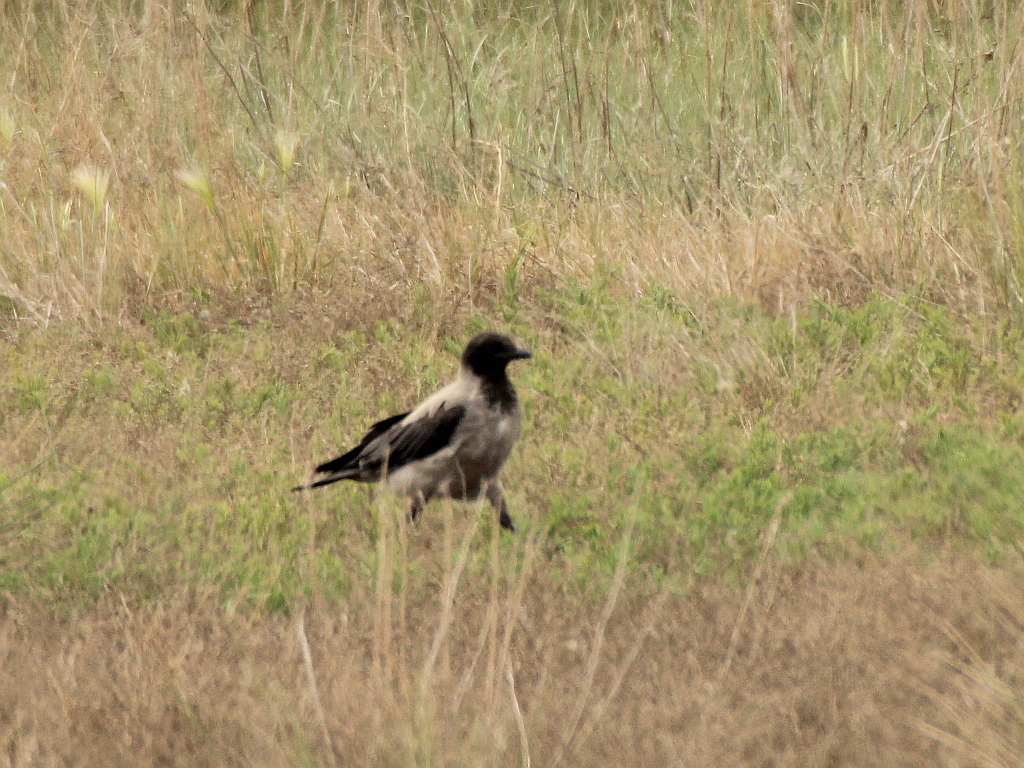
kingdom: Animalia
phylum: Chordata
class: Aves
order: Passeriformes
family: Corvidae
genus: Corvus
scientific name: Corvus cornix
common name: Hooded crow
